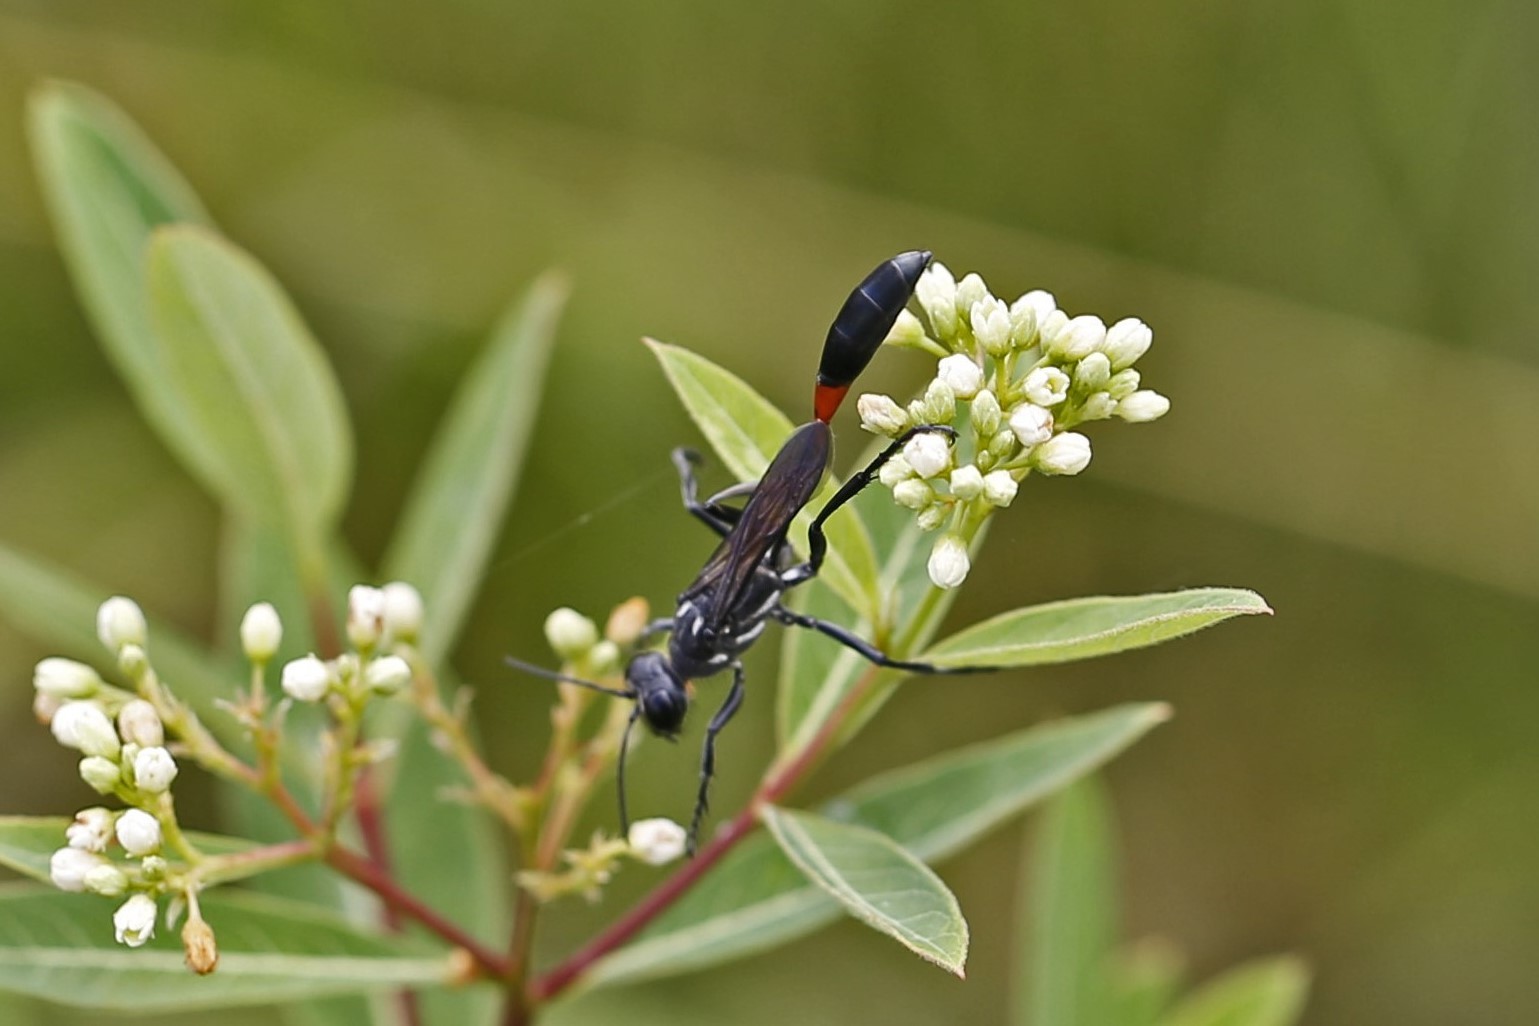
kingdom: Animalia
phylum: Arthropoda
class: Insecta
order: Hymenoptera
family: Sphecidae
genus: Ammophila
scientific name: Ammophila procera
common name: Common thread-waisted wasp
